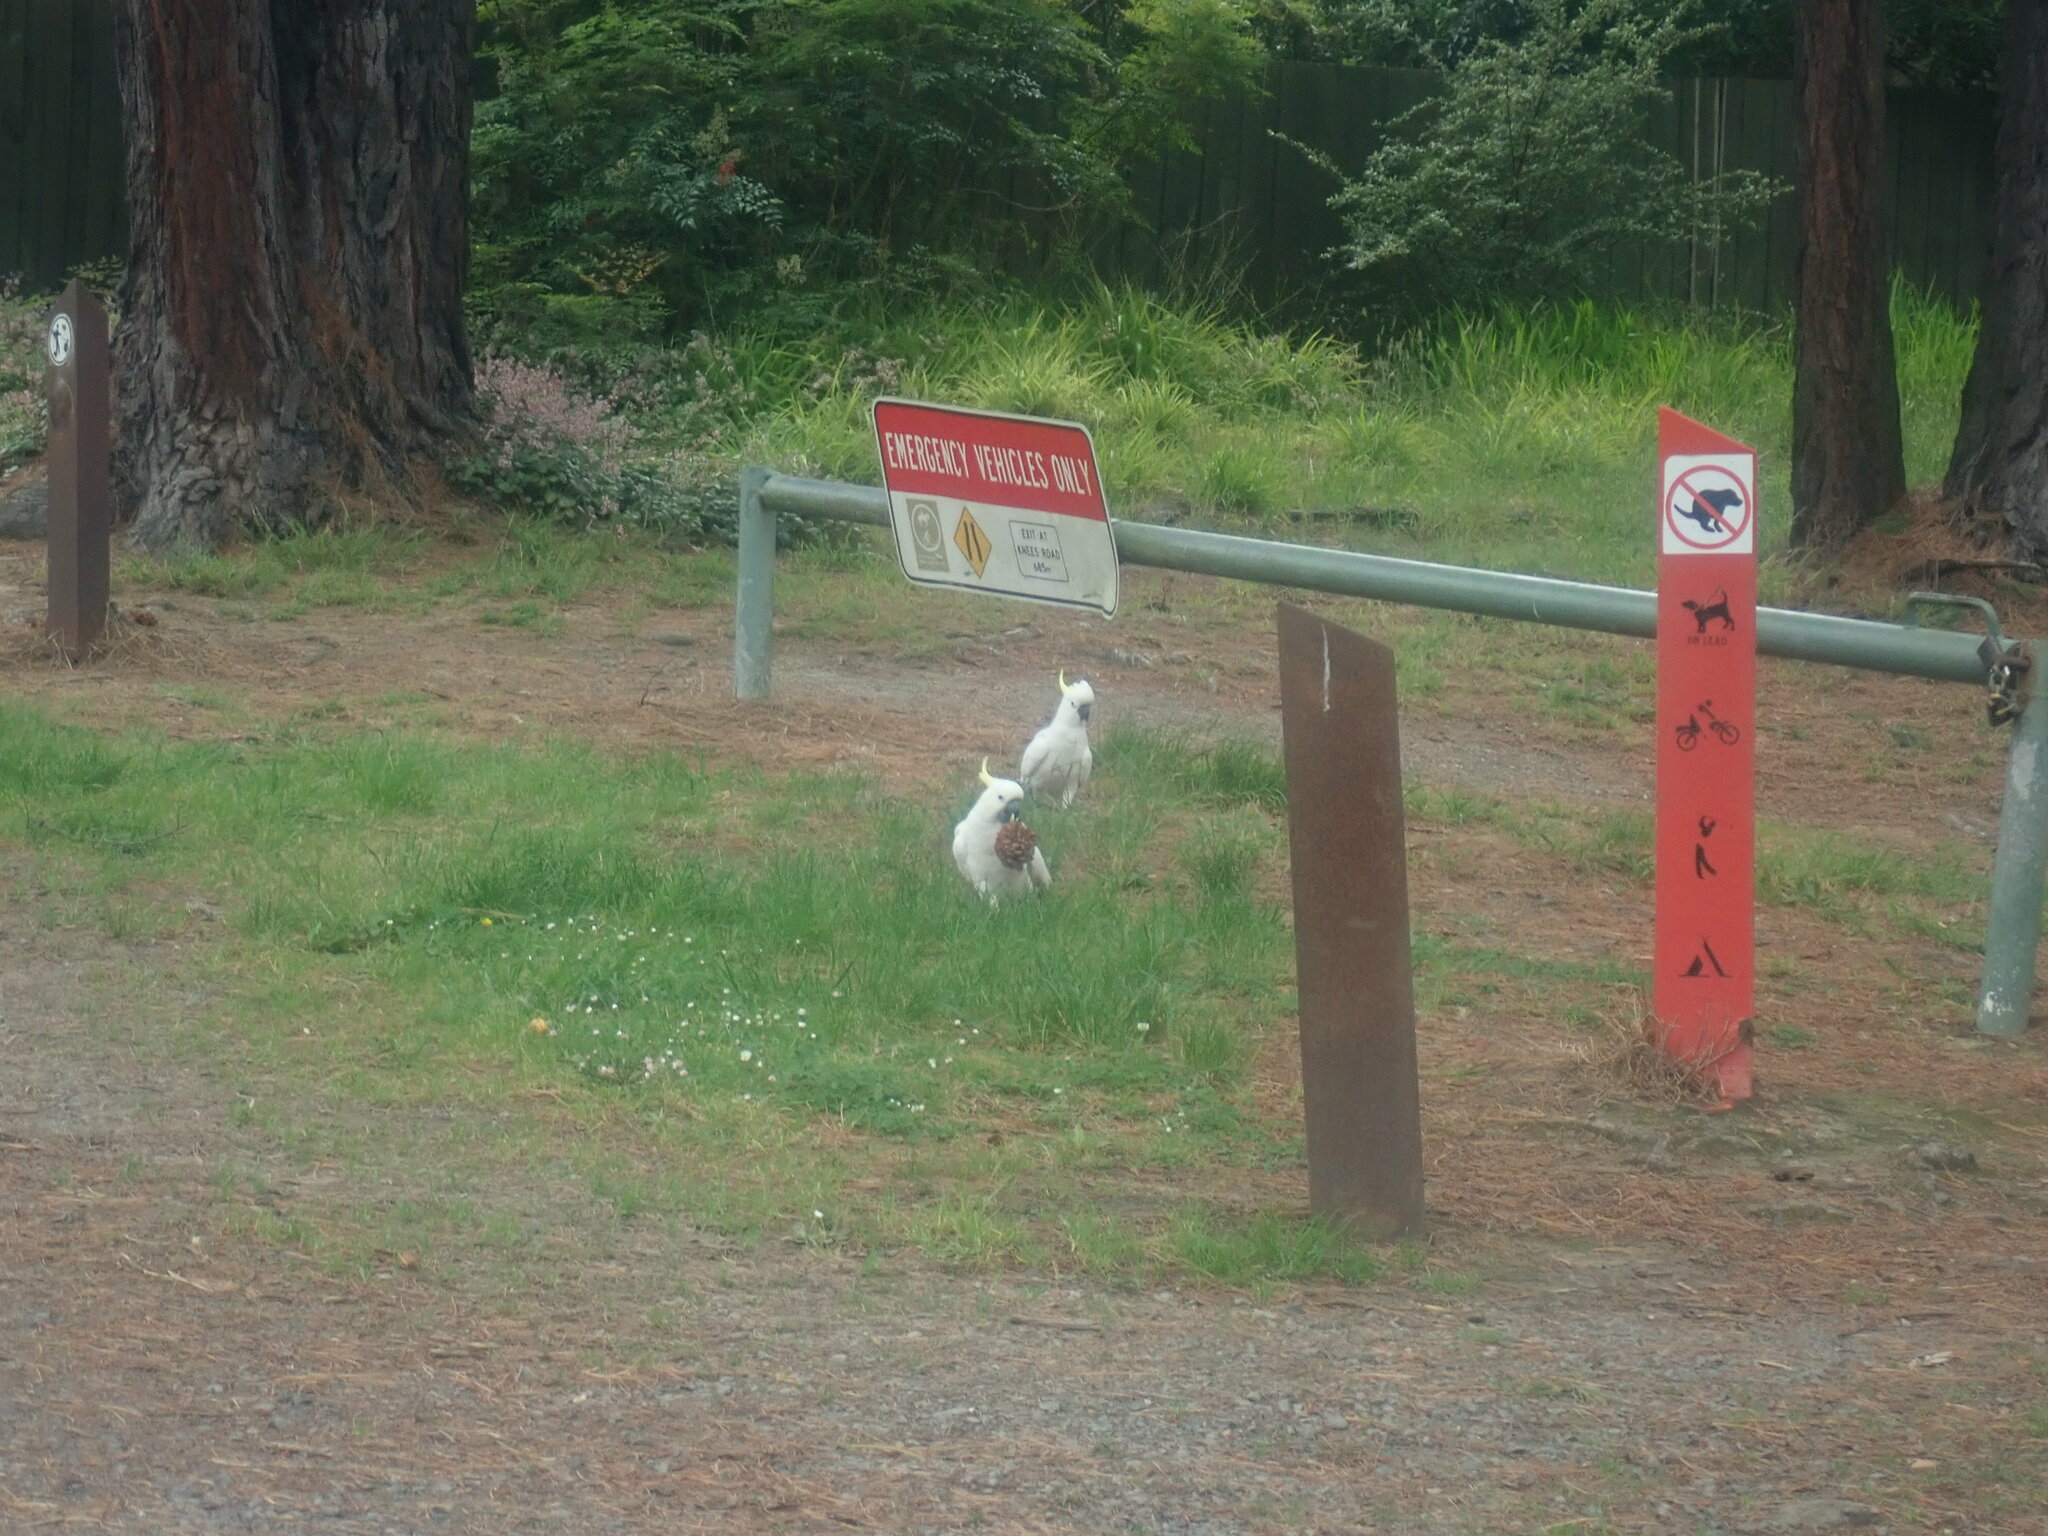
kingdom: Animalia
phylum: Chordata
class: Aves
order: Psittaciformes
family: Psittacidae
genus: Cacatua
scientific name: Cacatua galerita
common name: Sulphur-crested cockatoo
